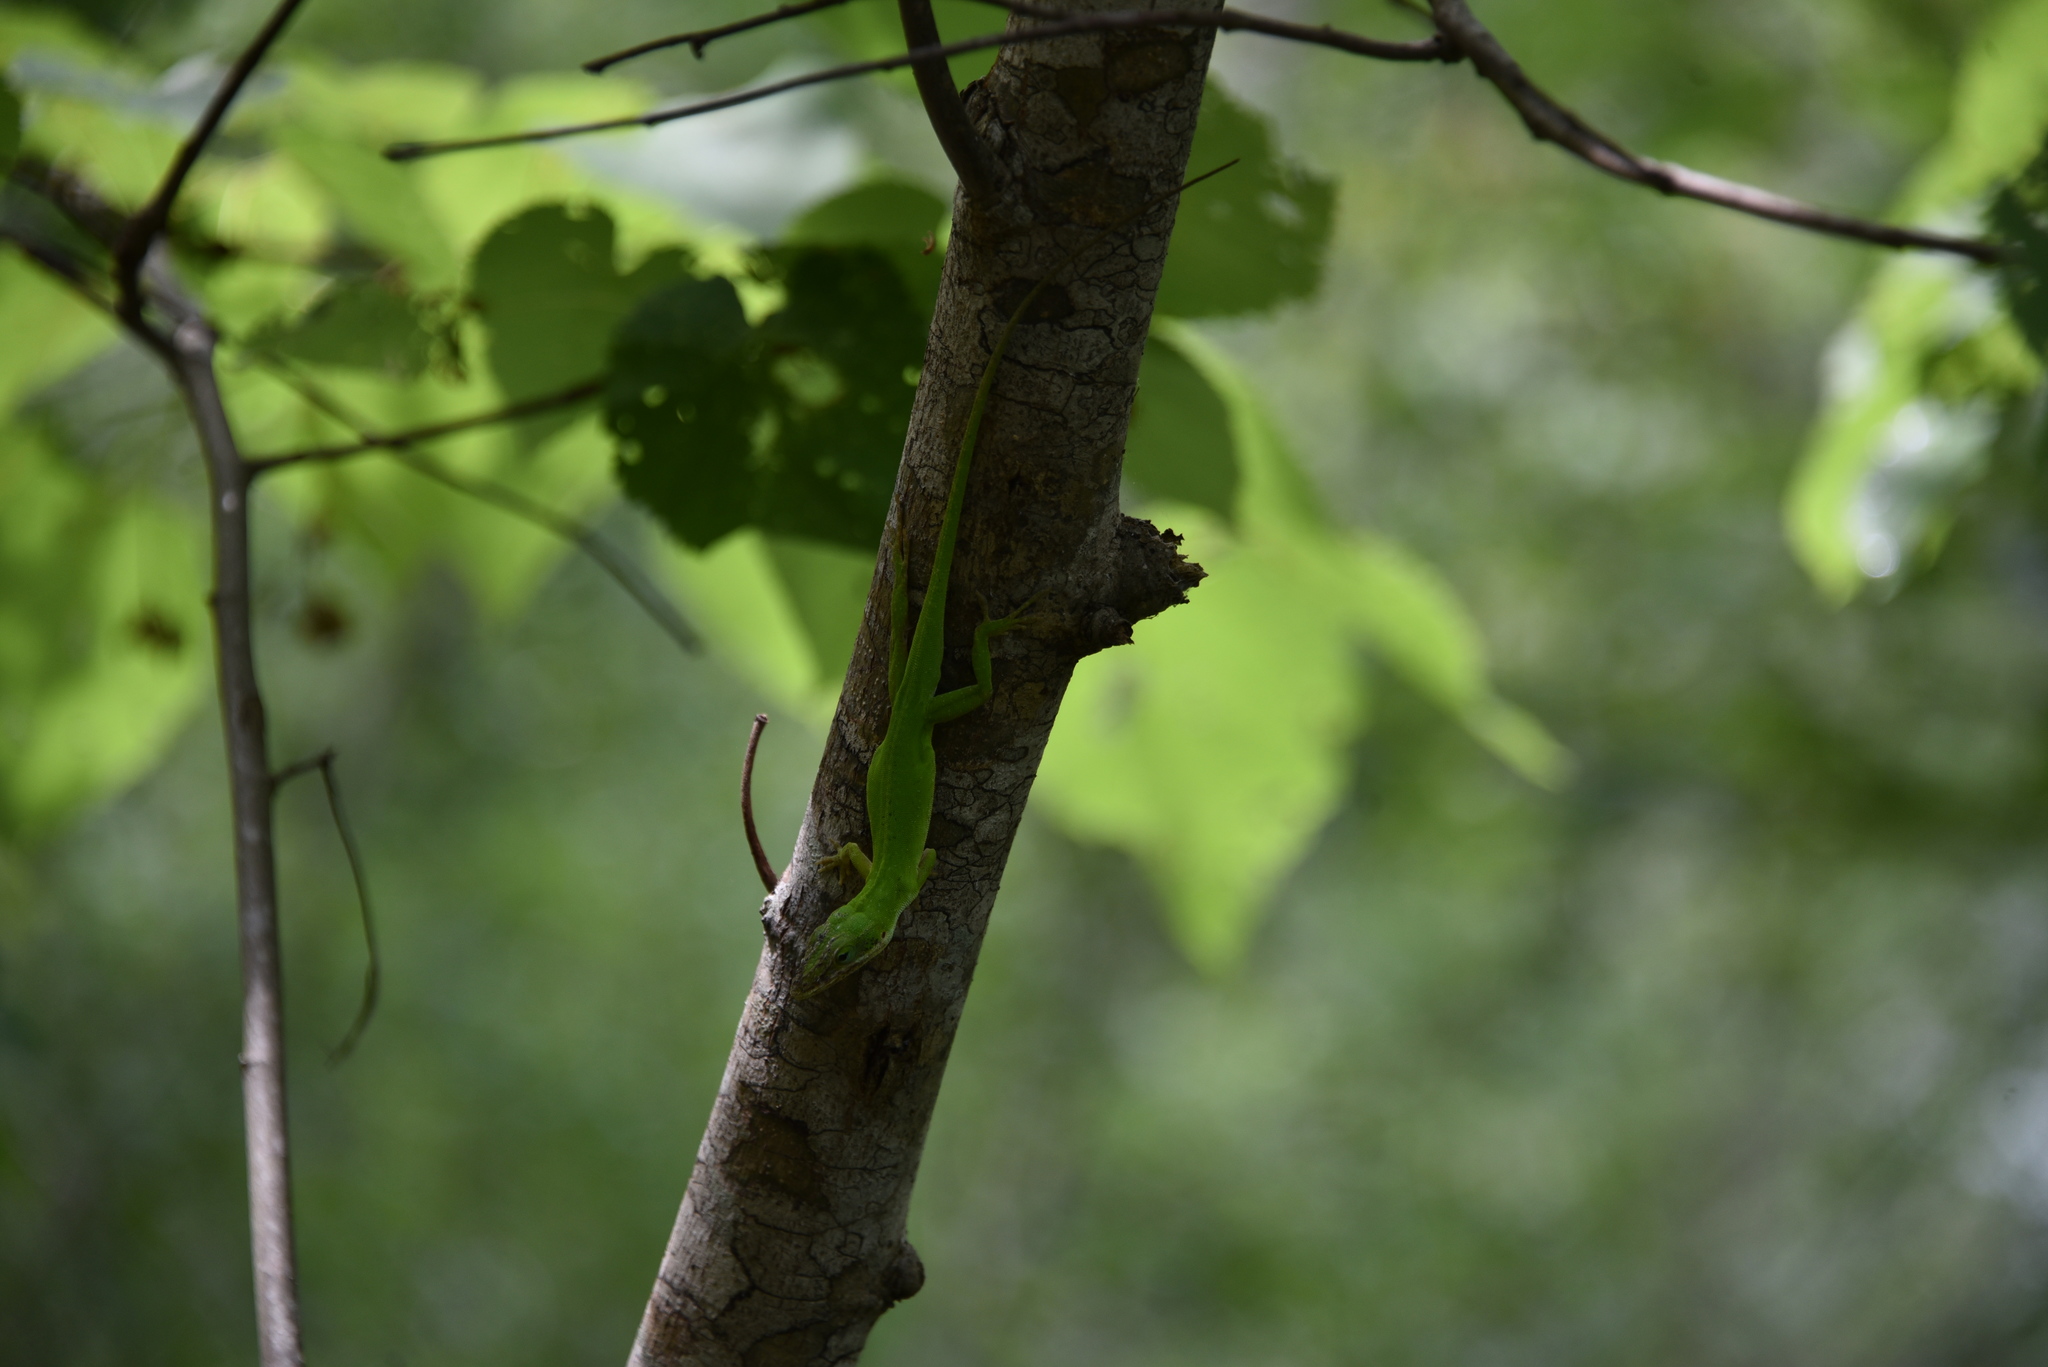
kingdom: Animalia
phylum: Chordata
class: Squamata
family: Dactyloidae
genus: Anolis
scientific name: Anolis carolinensis
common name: Green anole
